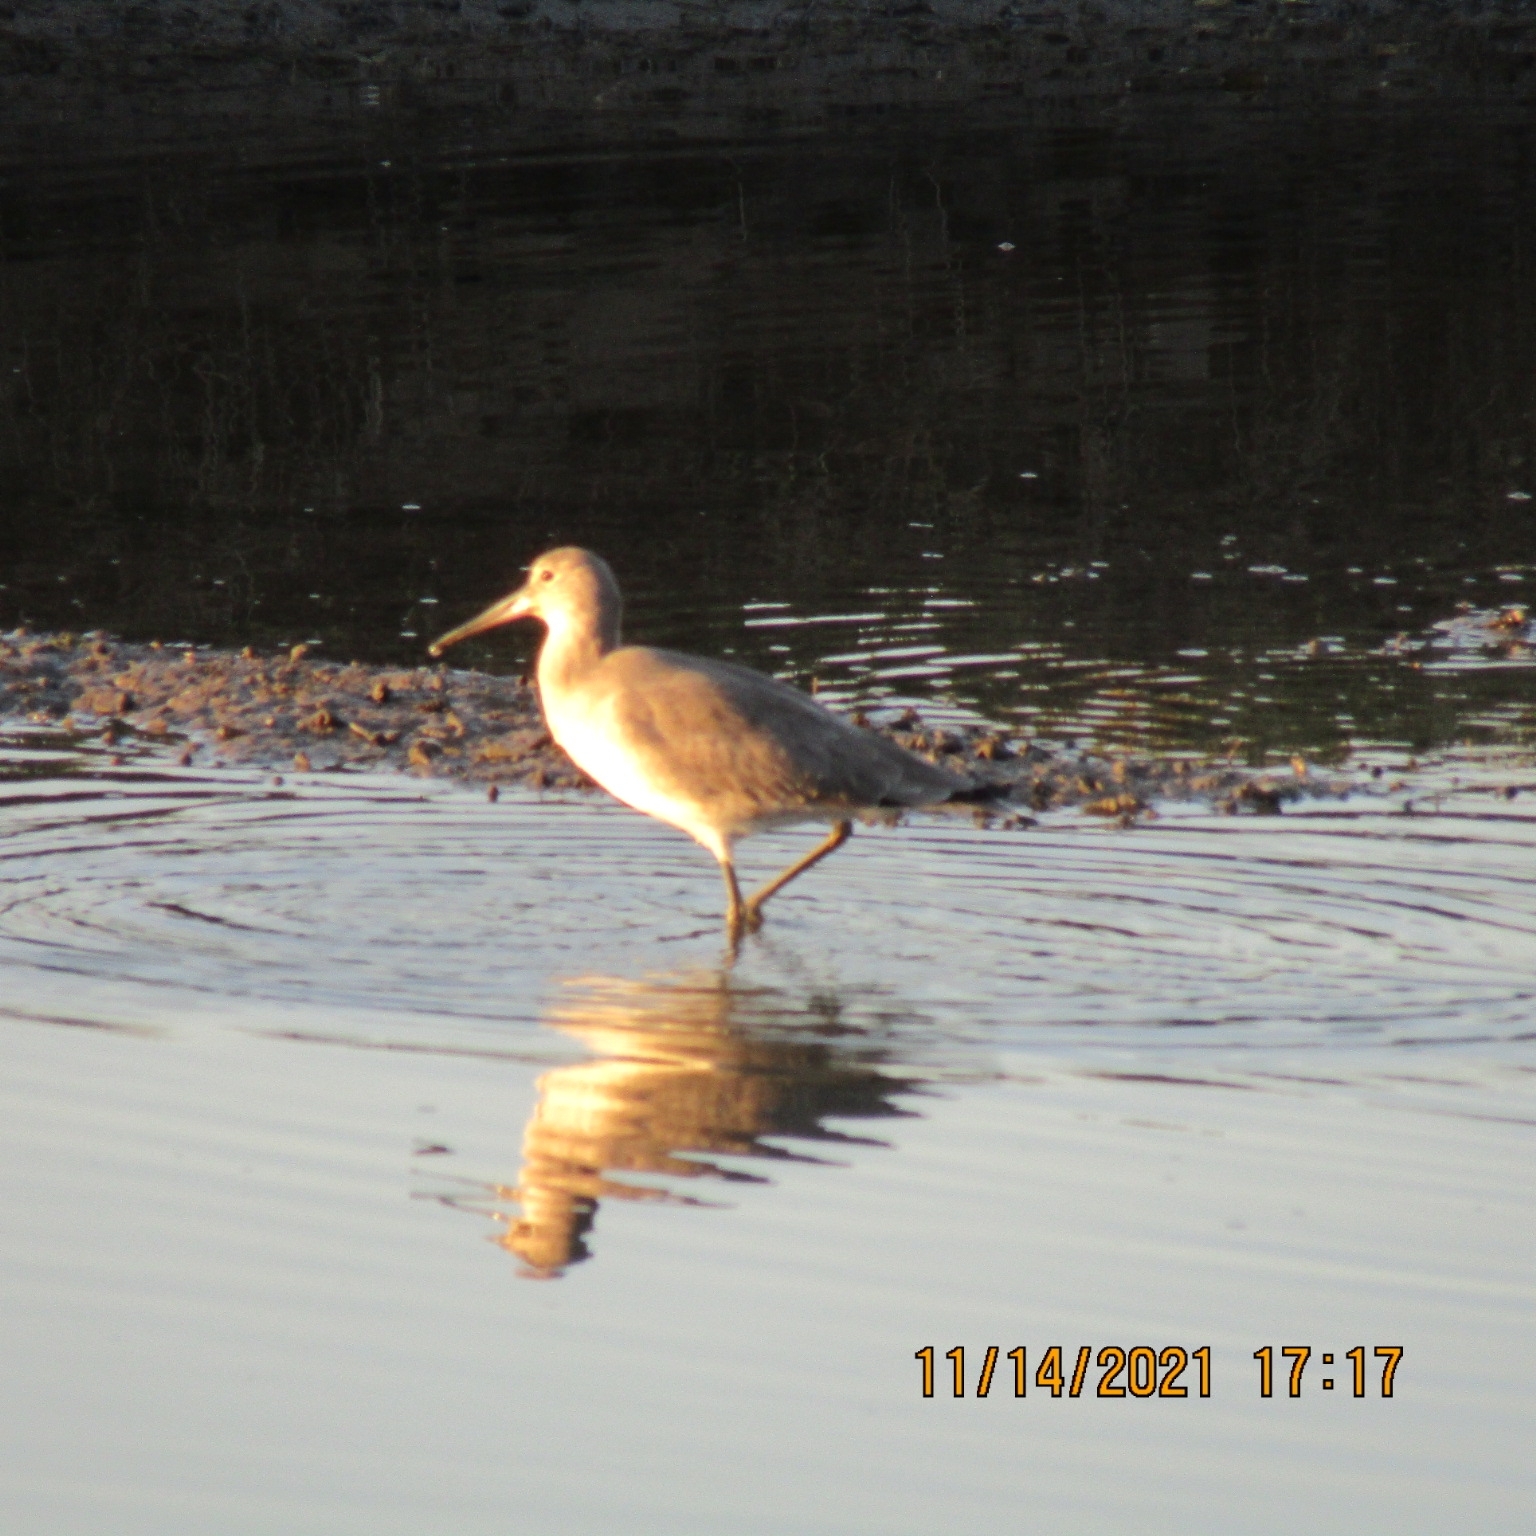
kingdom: Animalia
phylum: Chordata
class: Aves
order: Charadriiformes
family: Scolopacidae
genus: Tringa
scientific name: Tringa semipalmata
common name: Willet
